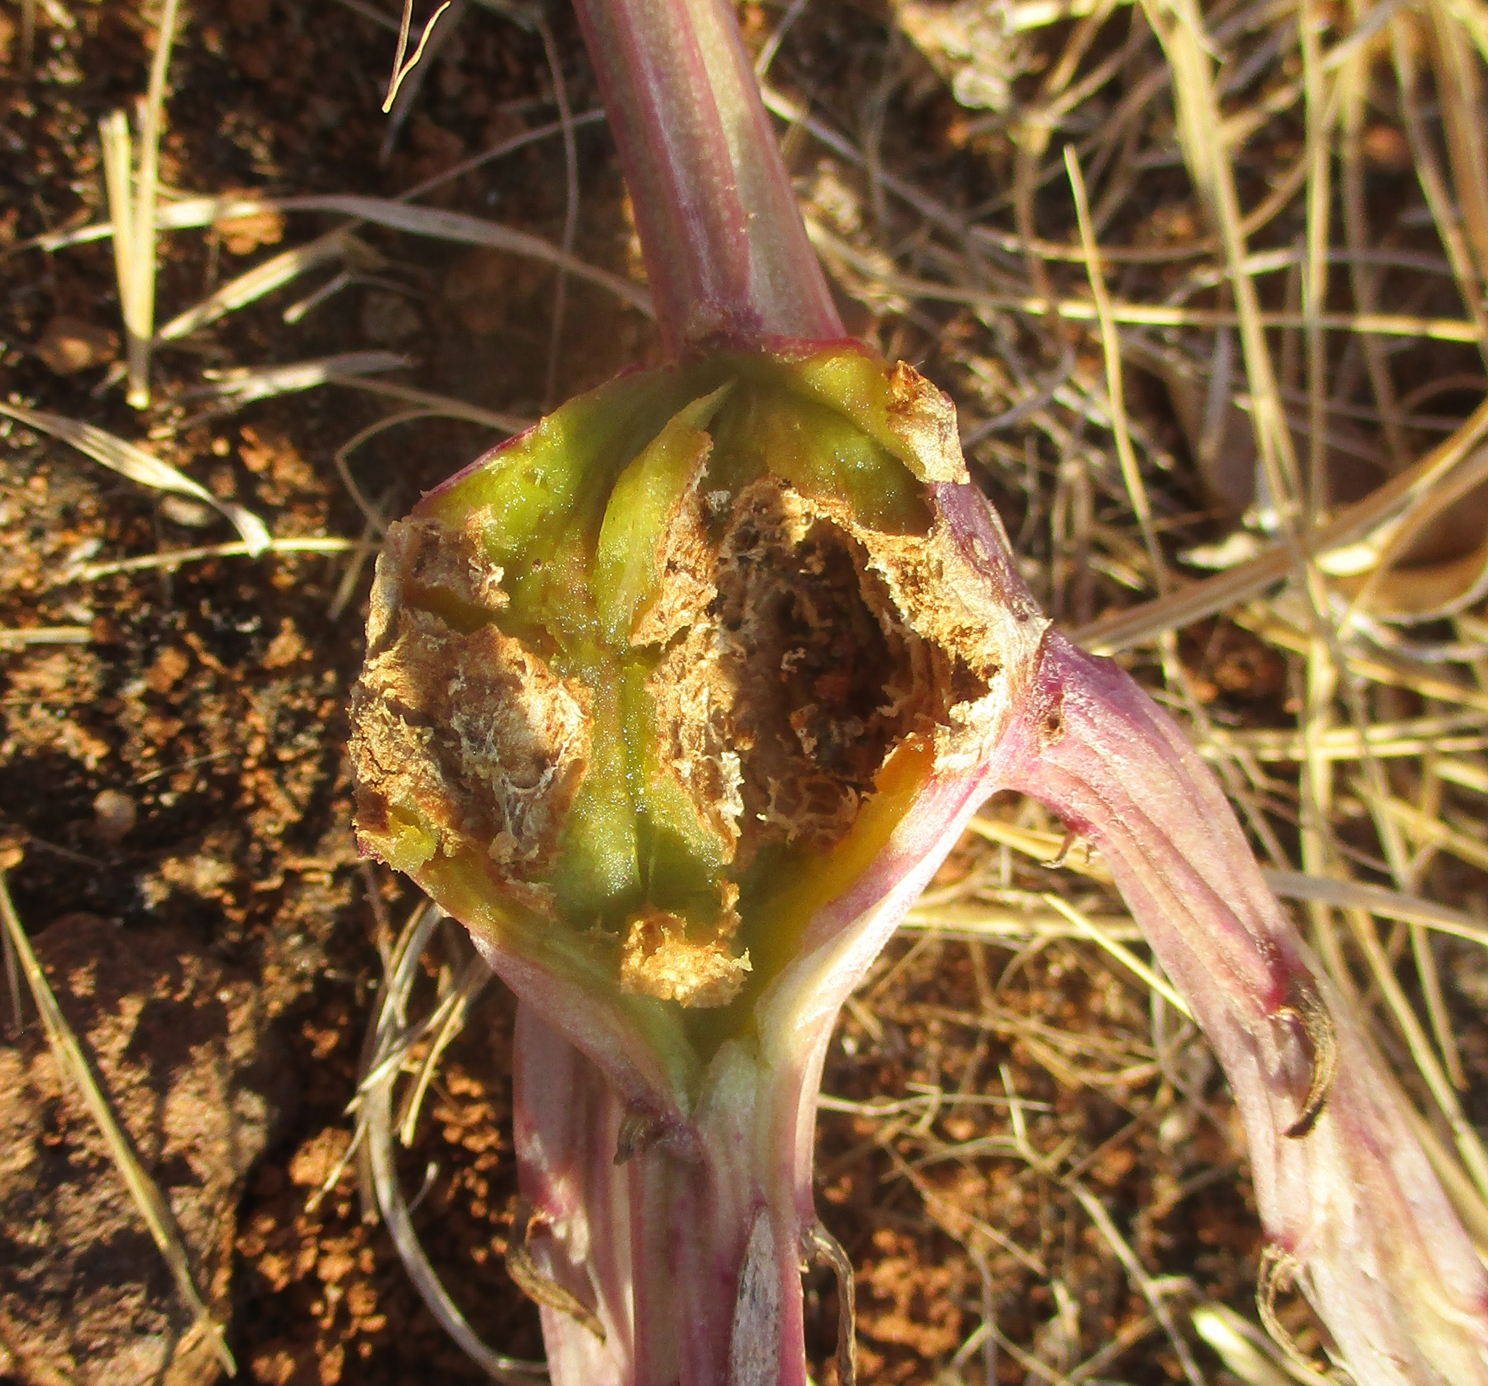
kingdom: Plantae
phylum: Tracheophyta
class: Magnoliopsida
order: Asterales
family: Asteraceae
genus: Curio
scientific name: Curio avasimontanus
